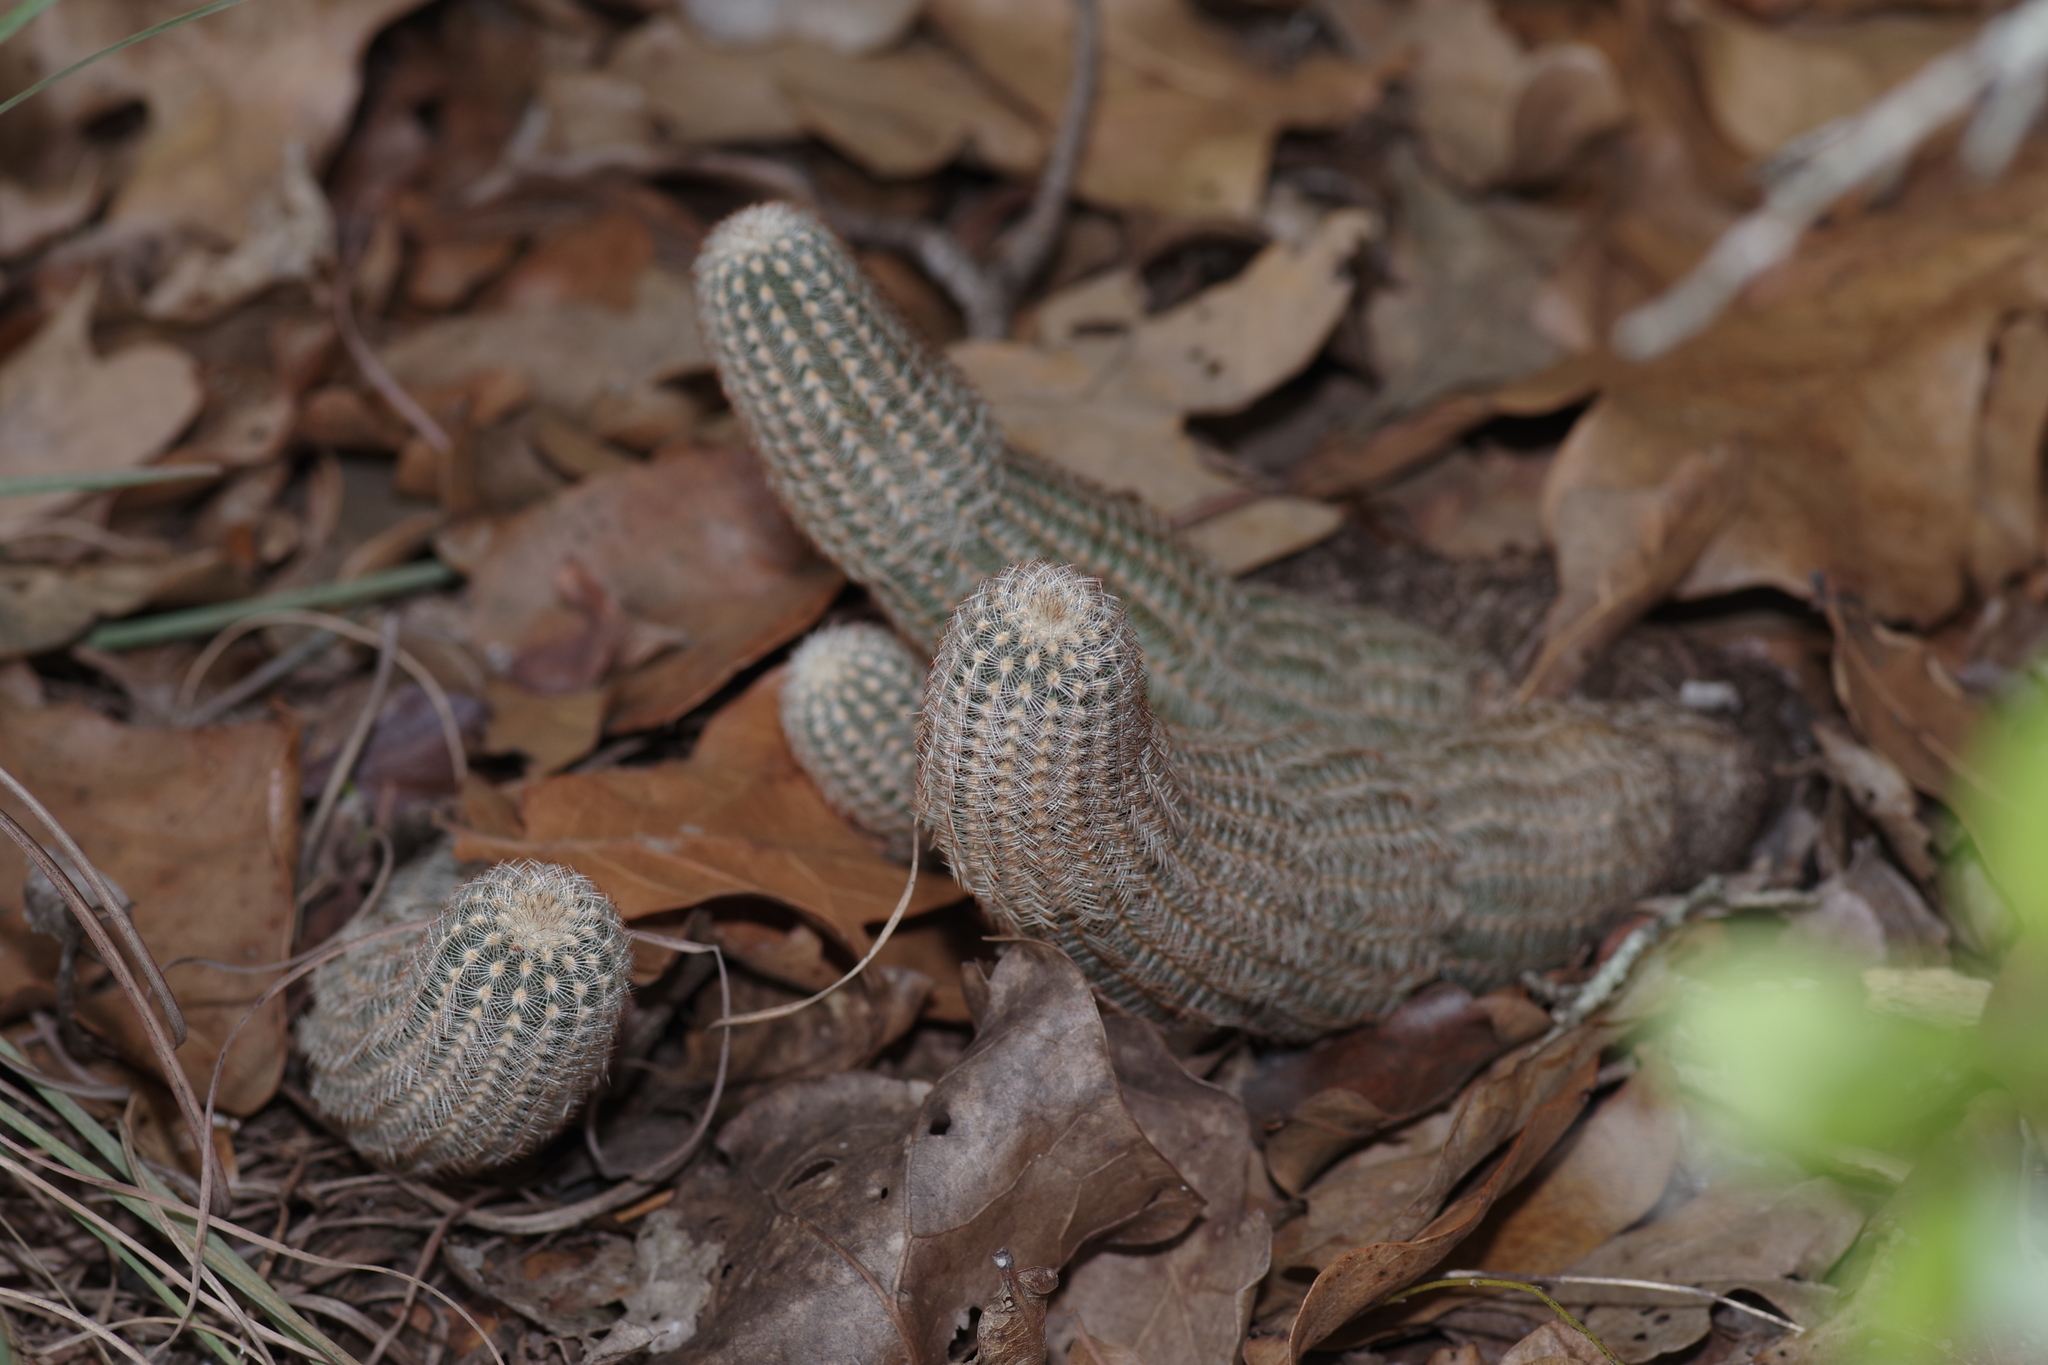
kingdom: Plantae
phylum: Tracheophyta
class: Magnoliopsida
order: Caryophyllales
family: Cactaceae
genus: Echinocereus
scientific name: Echinocereus reichenbachii
